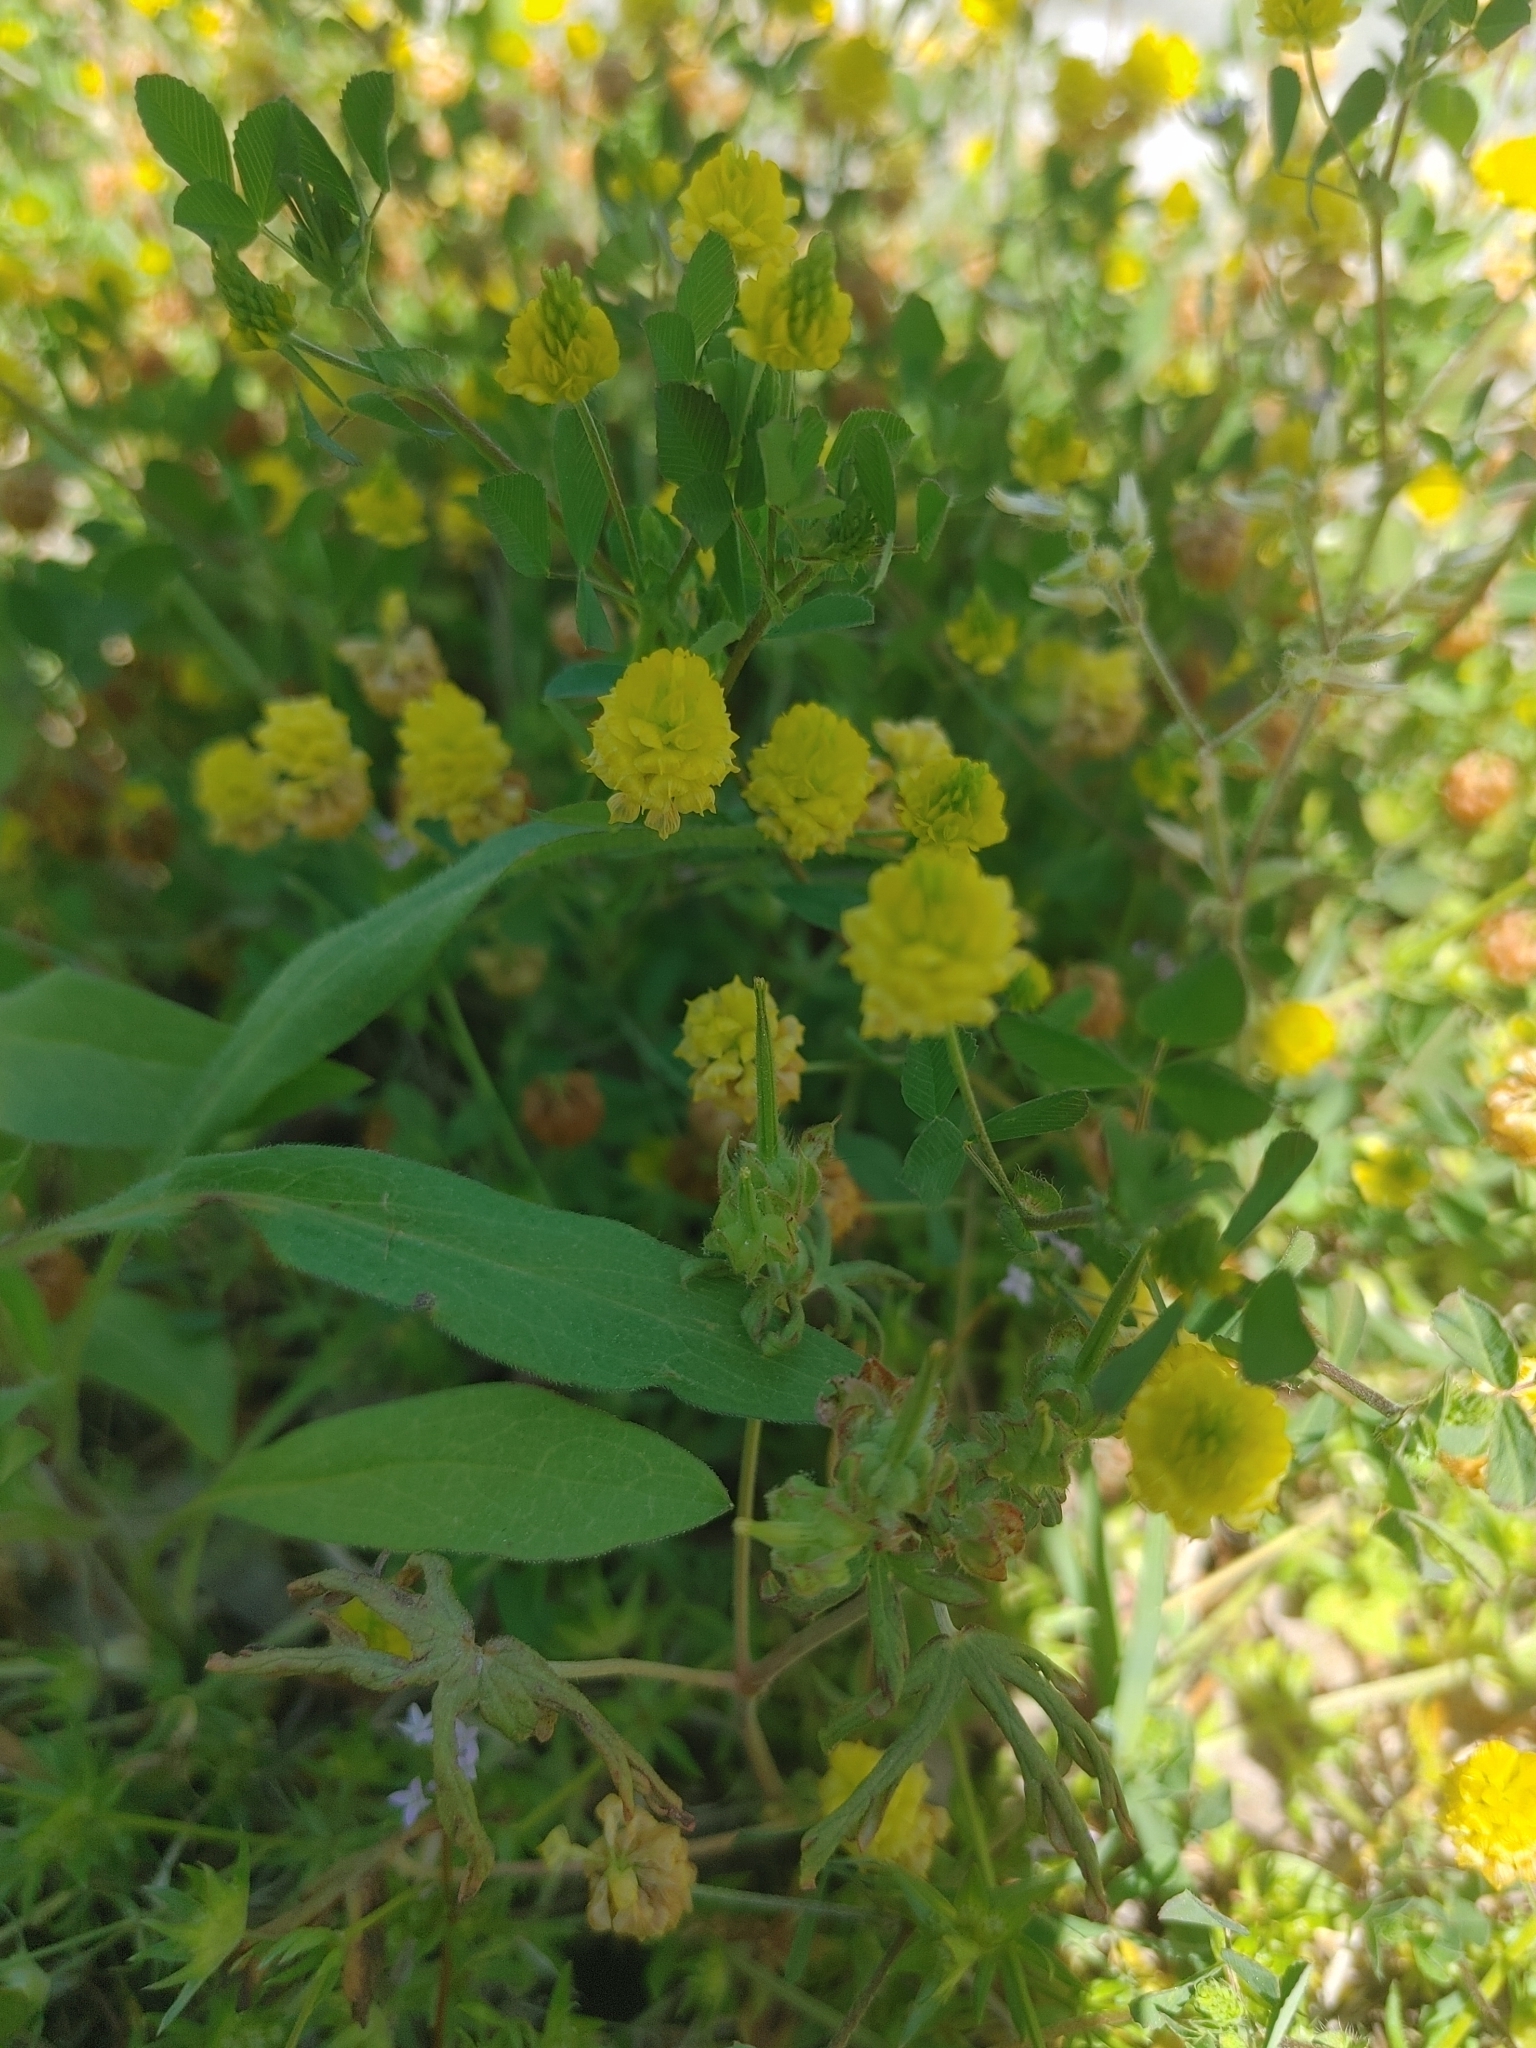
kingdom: Plantae
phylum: Tracheophyta
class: Magnoliopsida
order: Fabales
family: Fabaceae
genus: Trifolium
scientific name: Trifolium campestre
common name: Field clover
